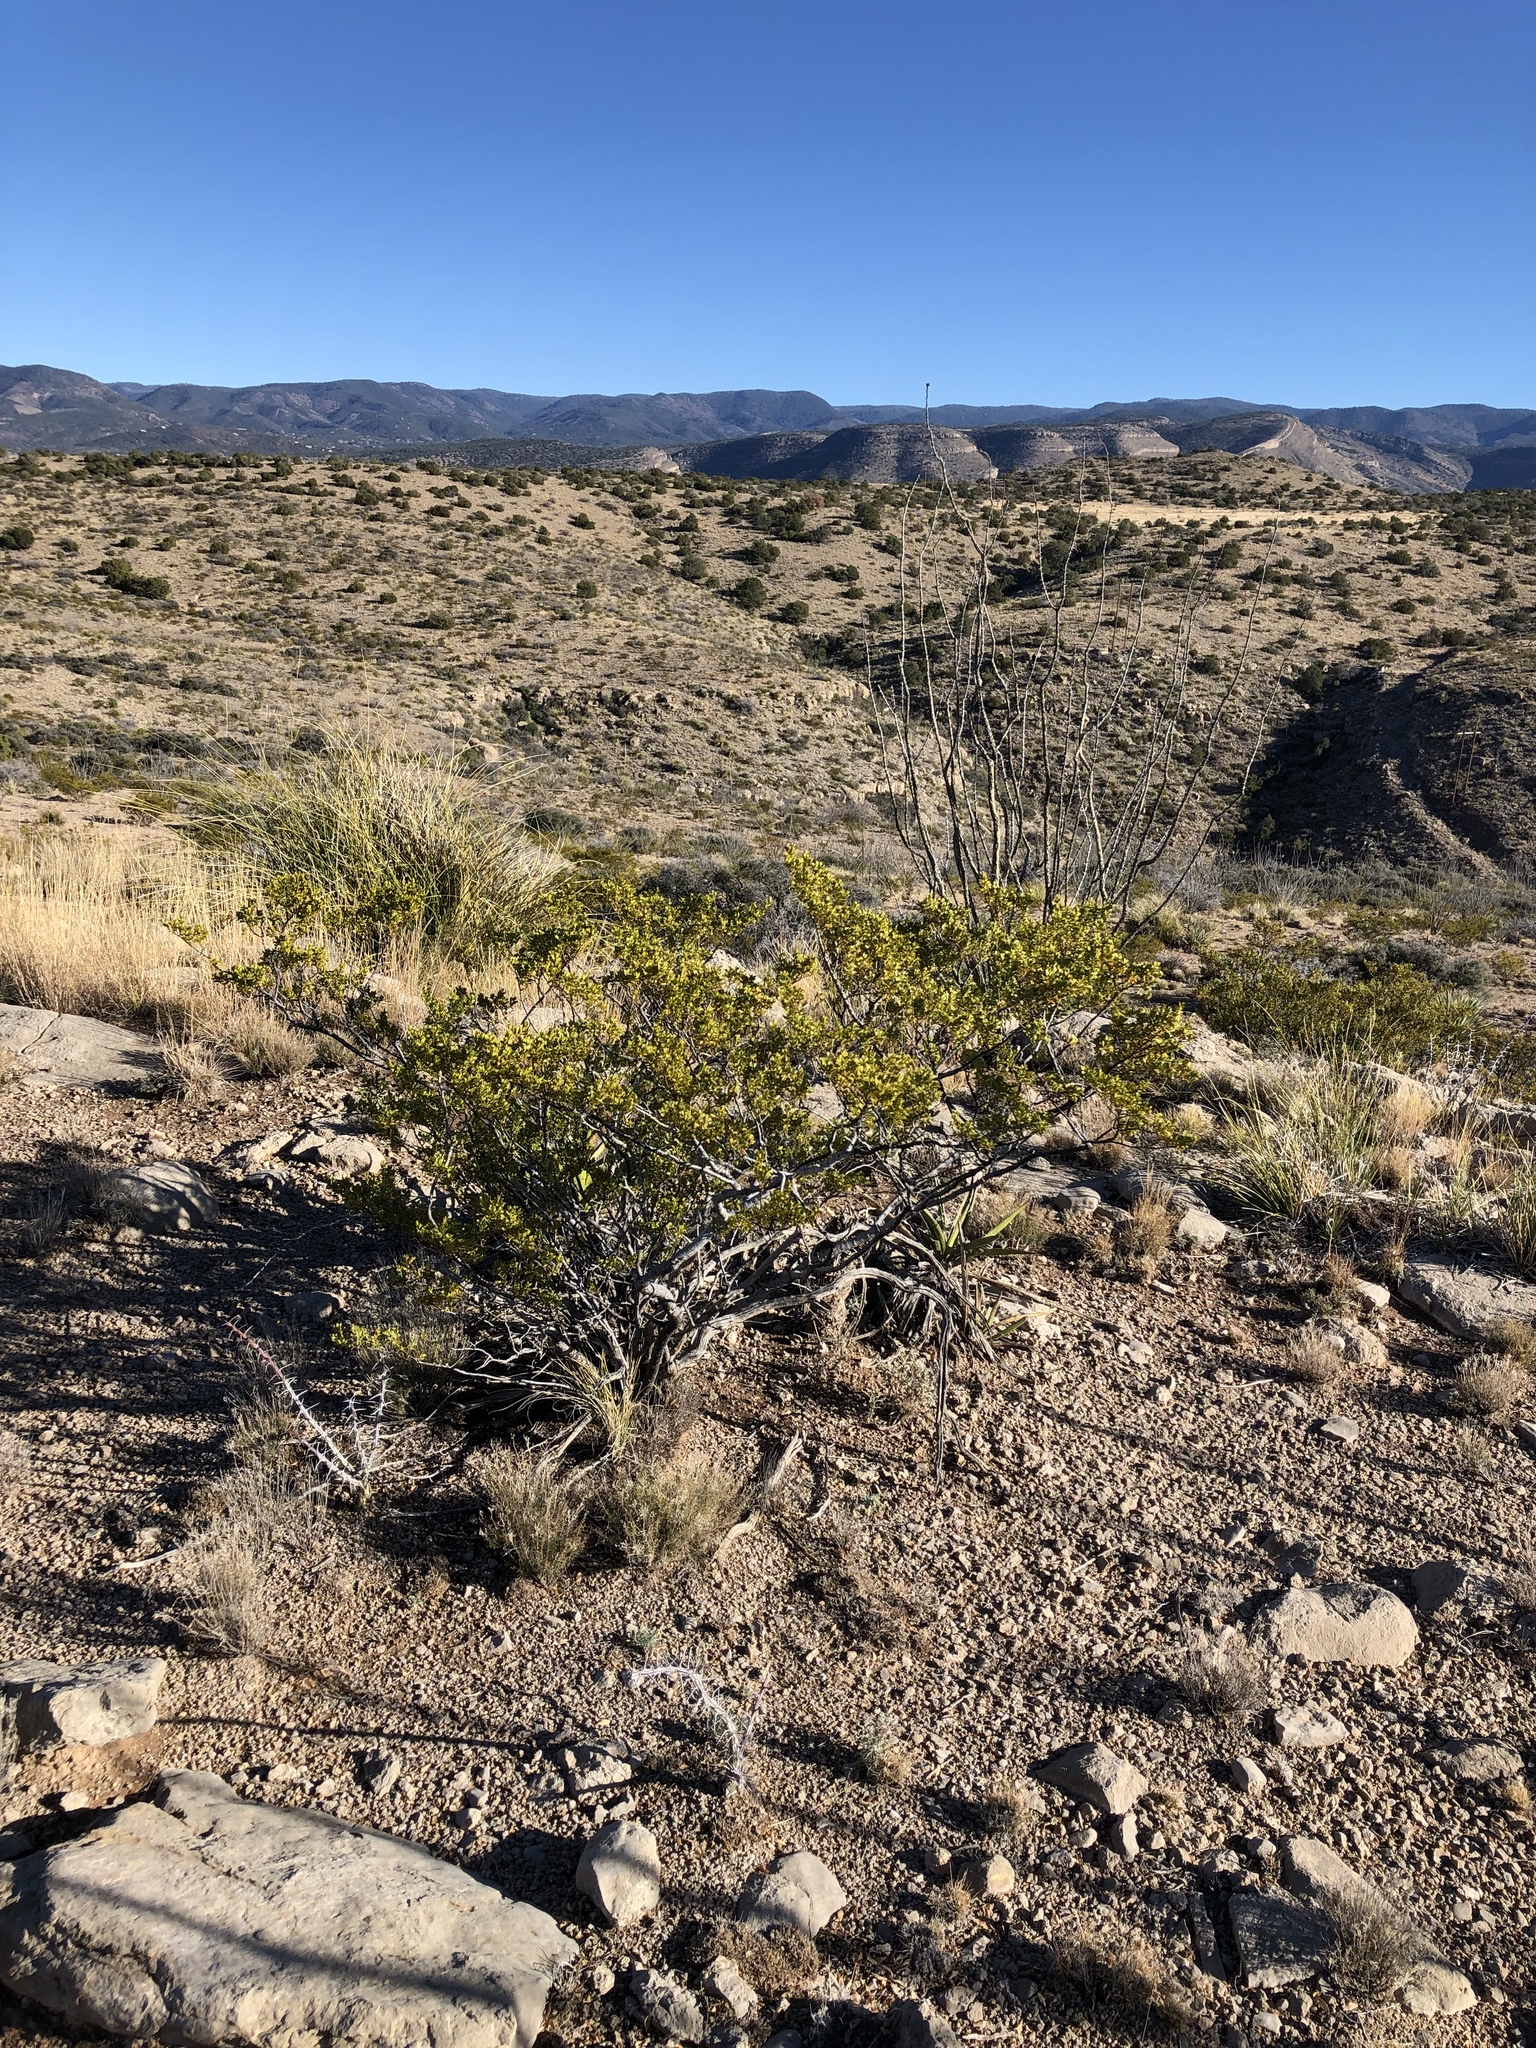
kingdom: Plantae
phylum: Tracheophyta
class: Magnoliopsida
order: Zygophyllales
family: Zygophyllaceae
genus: Larrea
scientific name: Larrea tridentata
